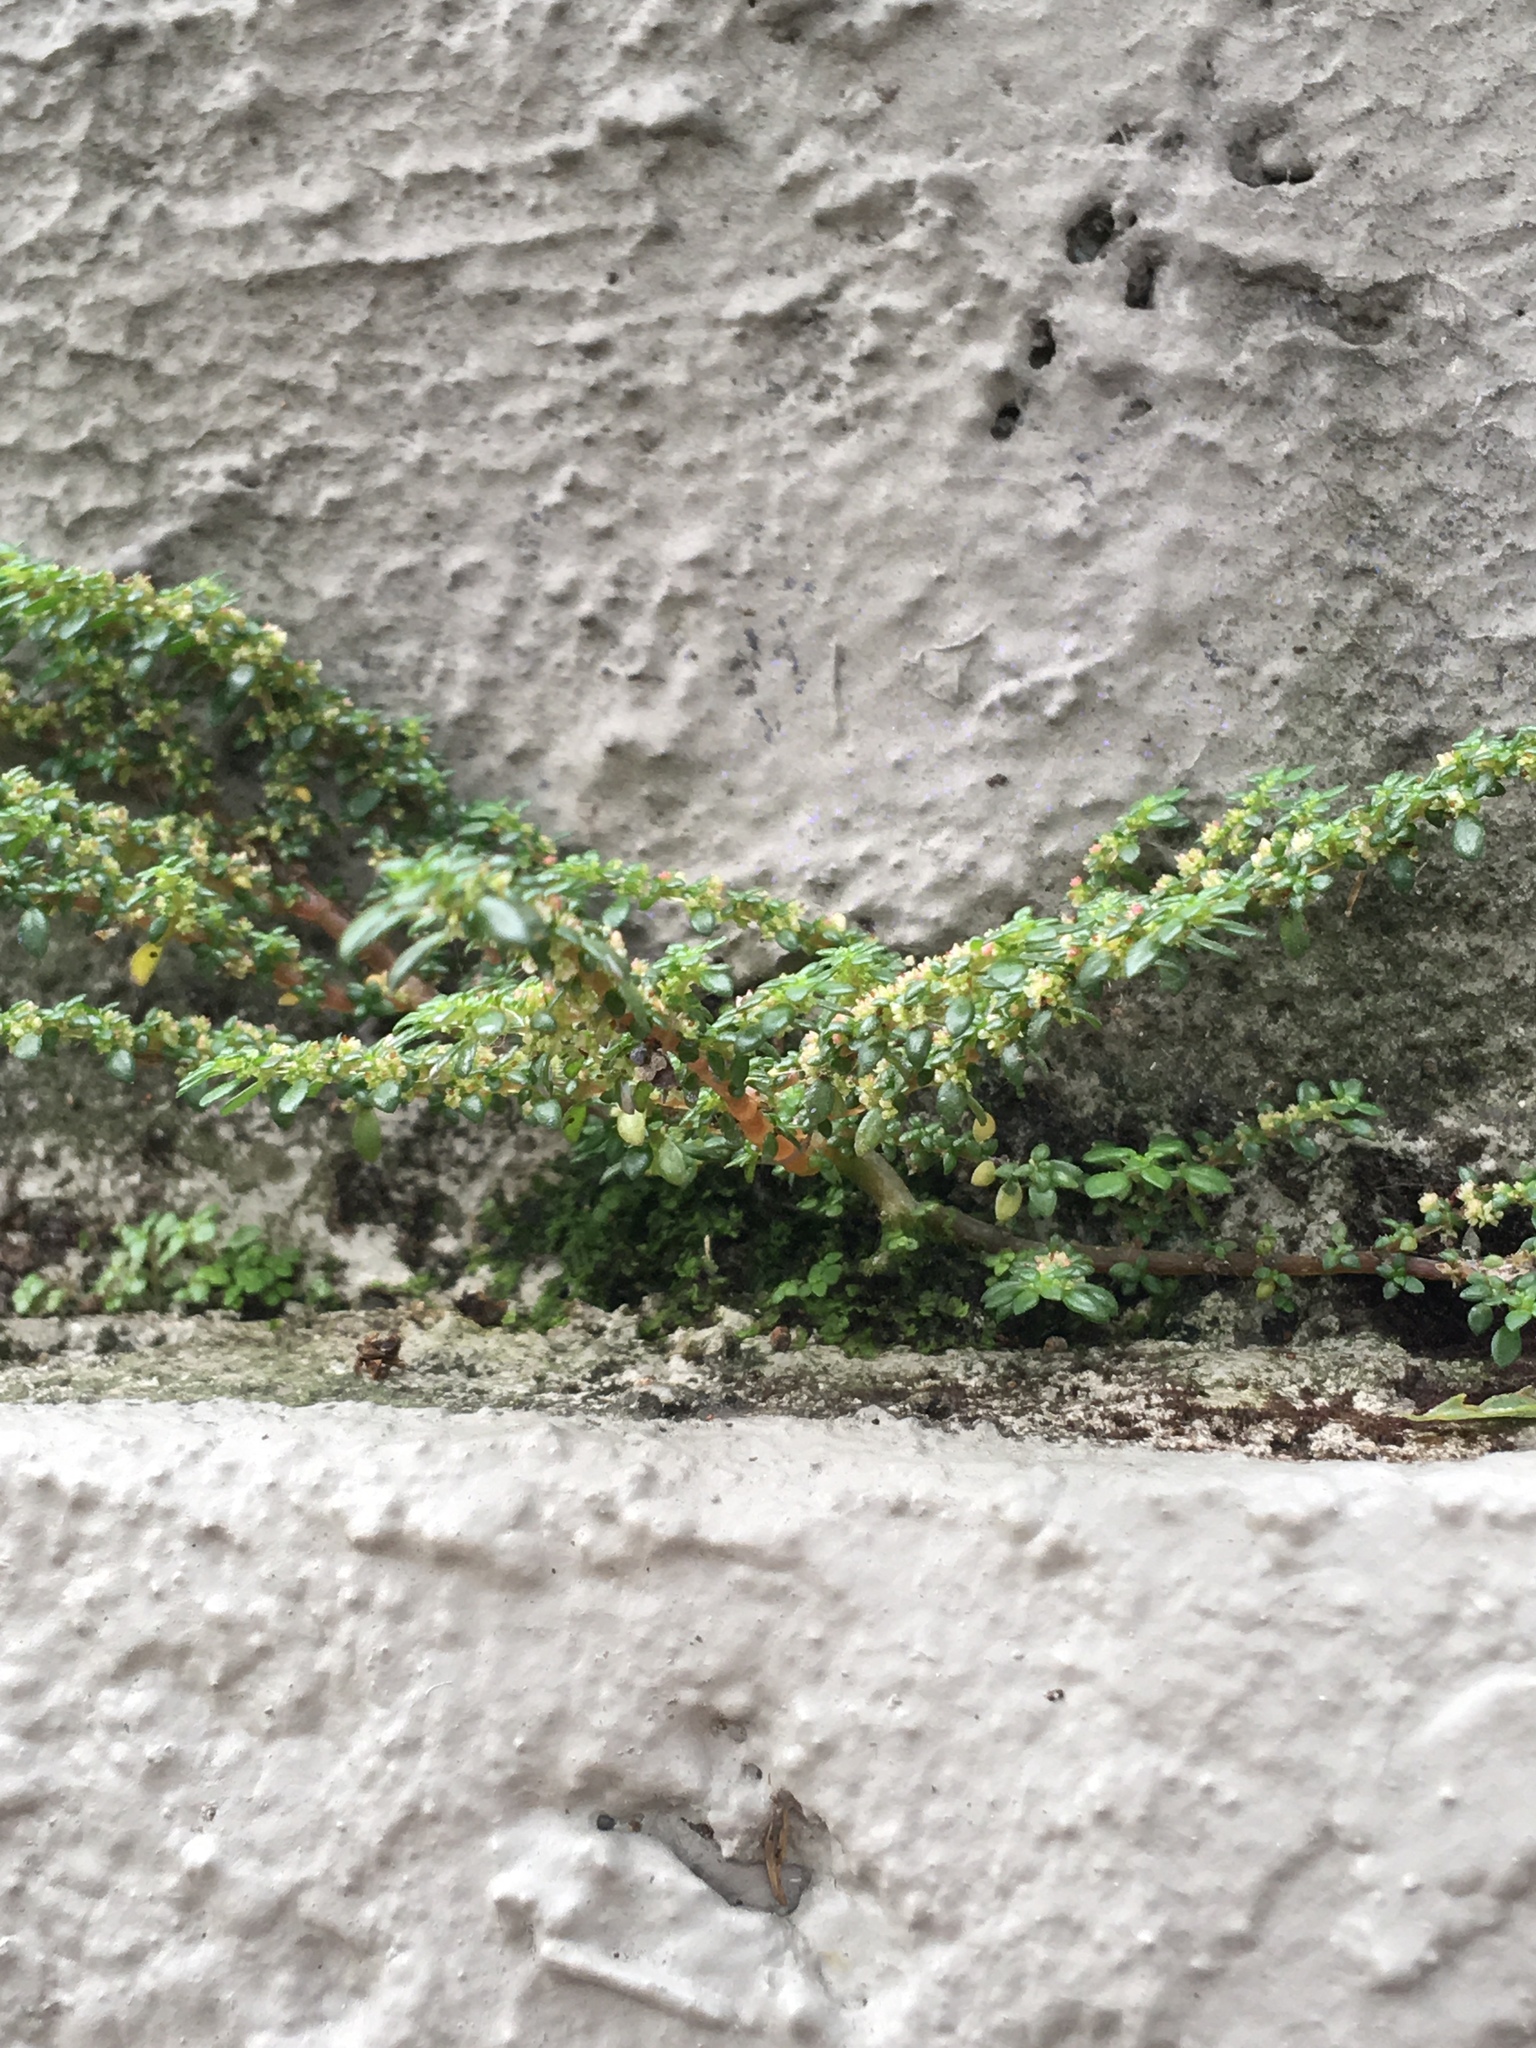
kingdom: Plantae
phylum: Tracheophyta
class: Magnoliopsida
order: Rosales
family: Urticaceae
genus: Pilea
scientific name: Pilea microphylla
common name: Artillery-plant
